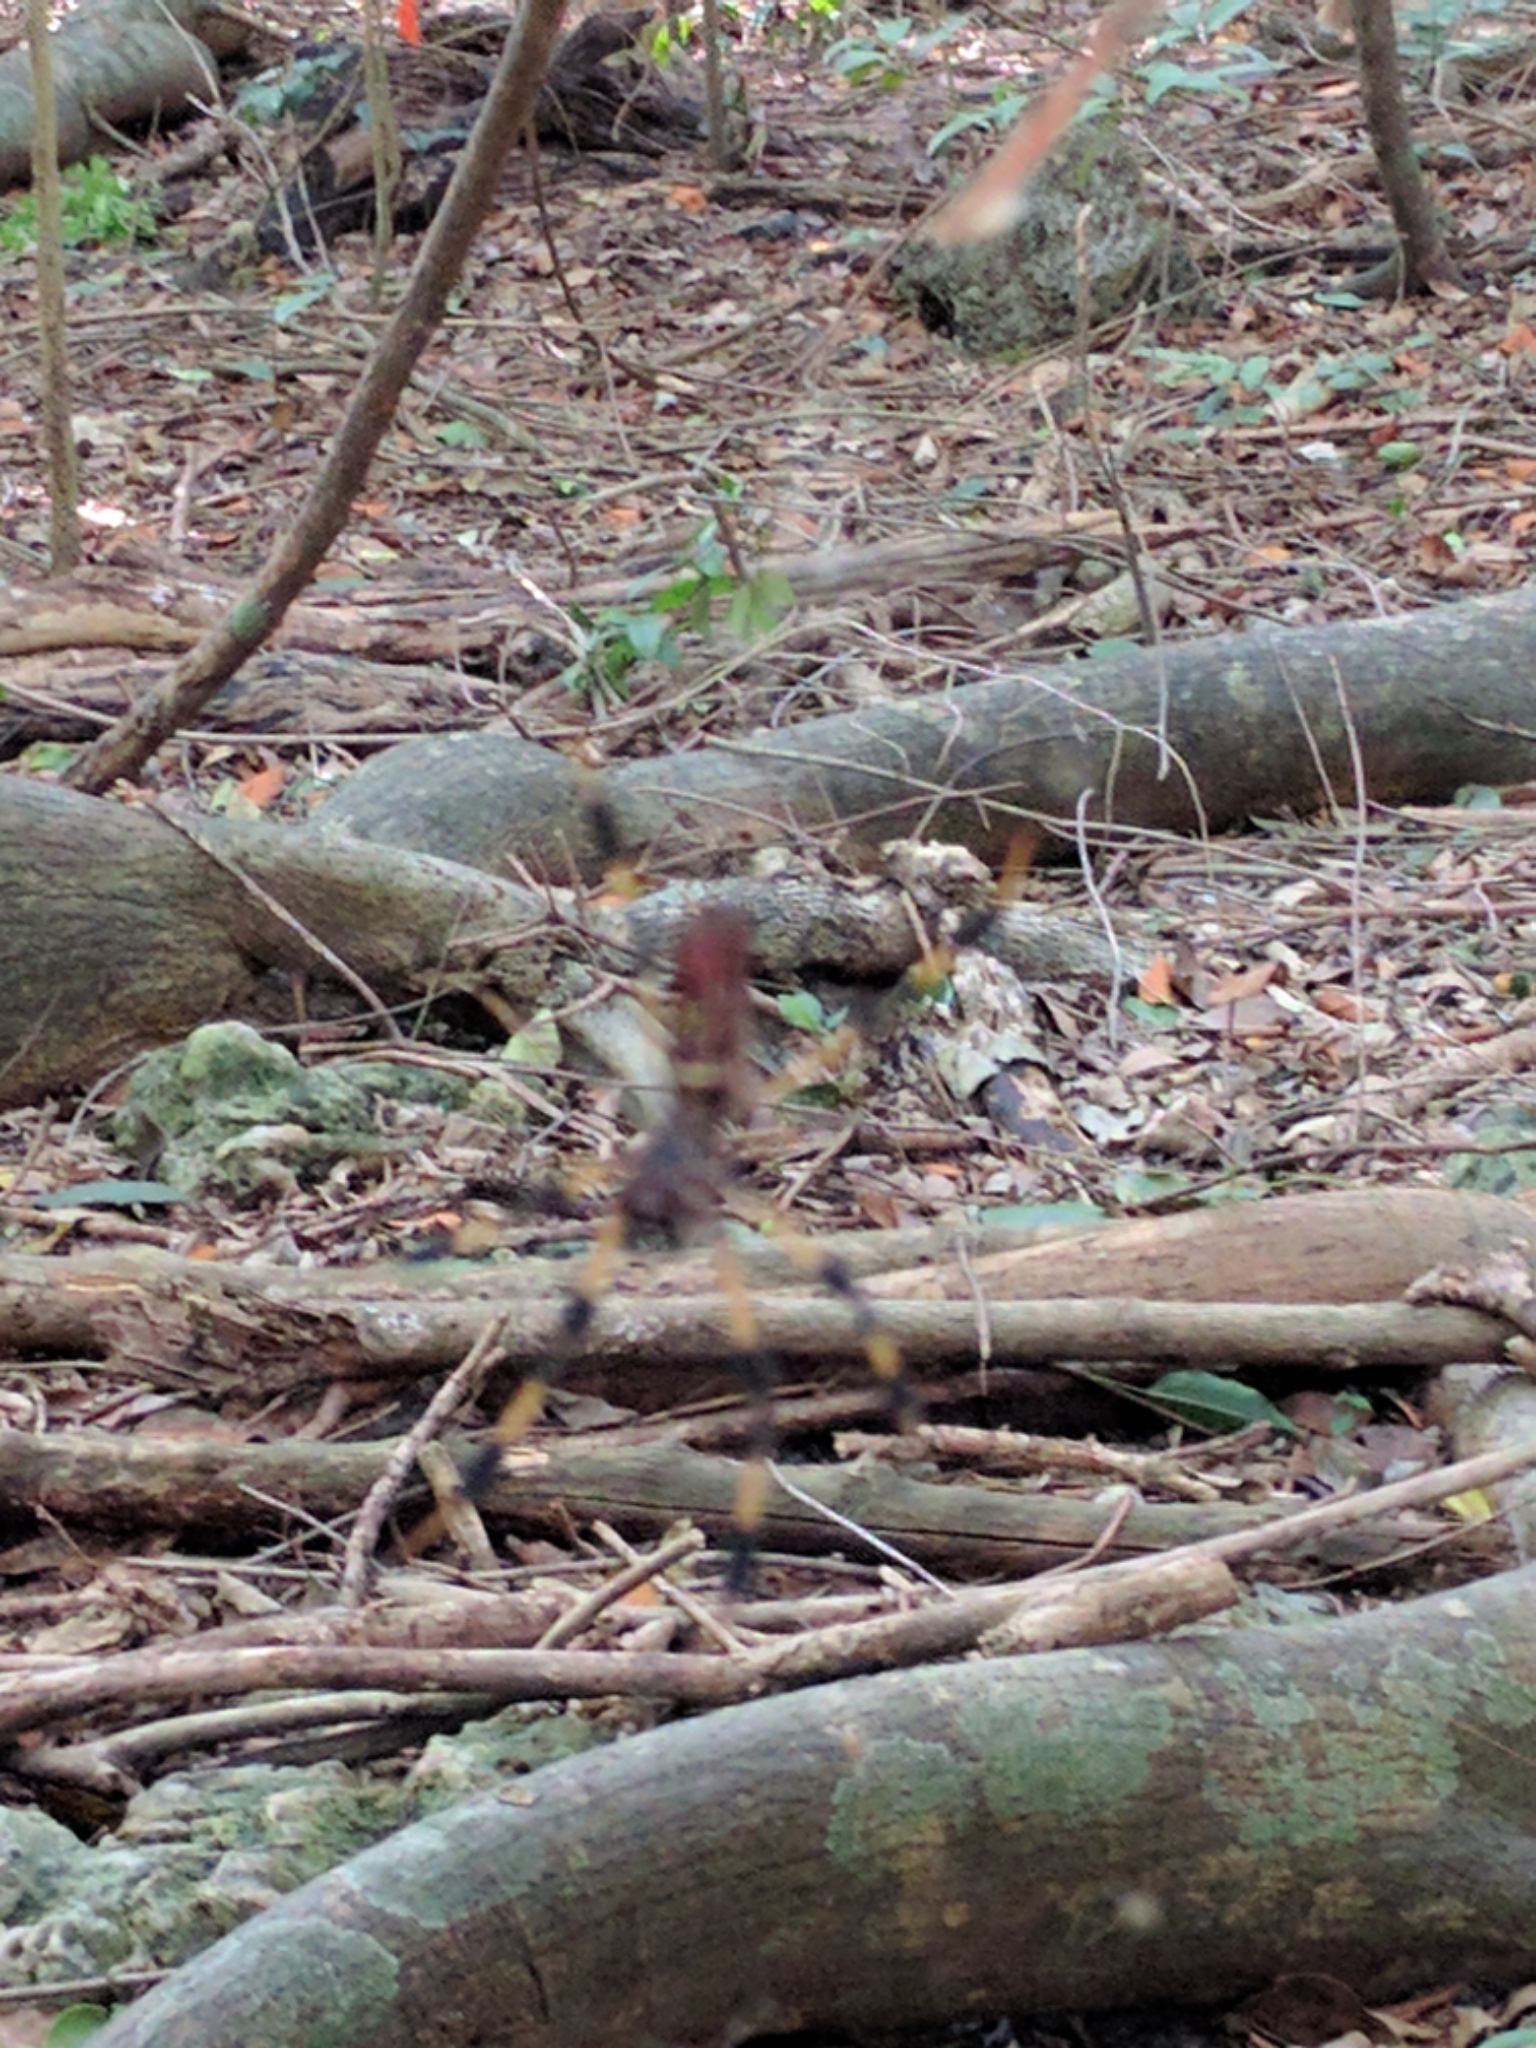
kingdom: Animalia
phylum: Arthropoda
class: Arachnida
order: Araneae
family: Araneidae
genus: Trichonephila
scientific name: Trichonephila clavipes
